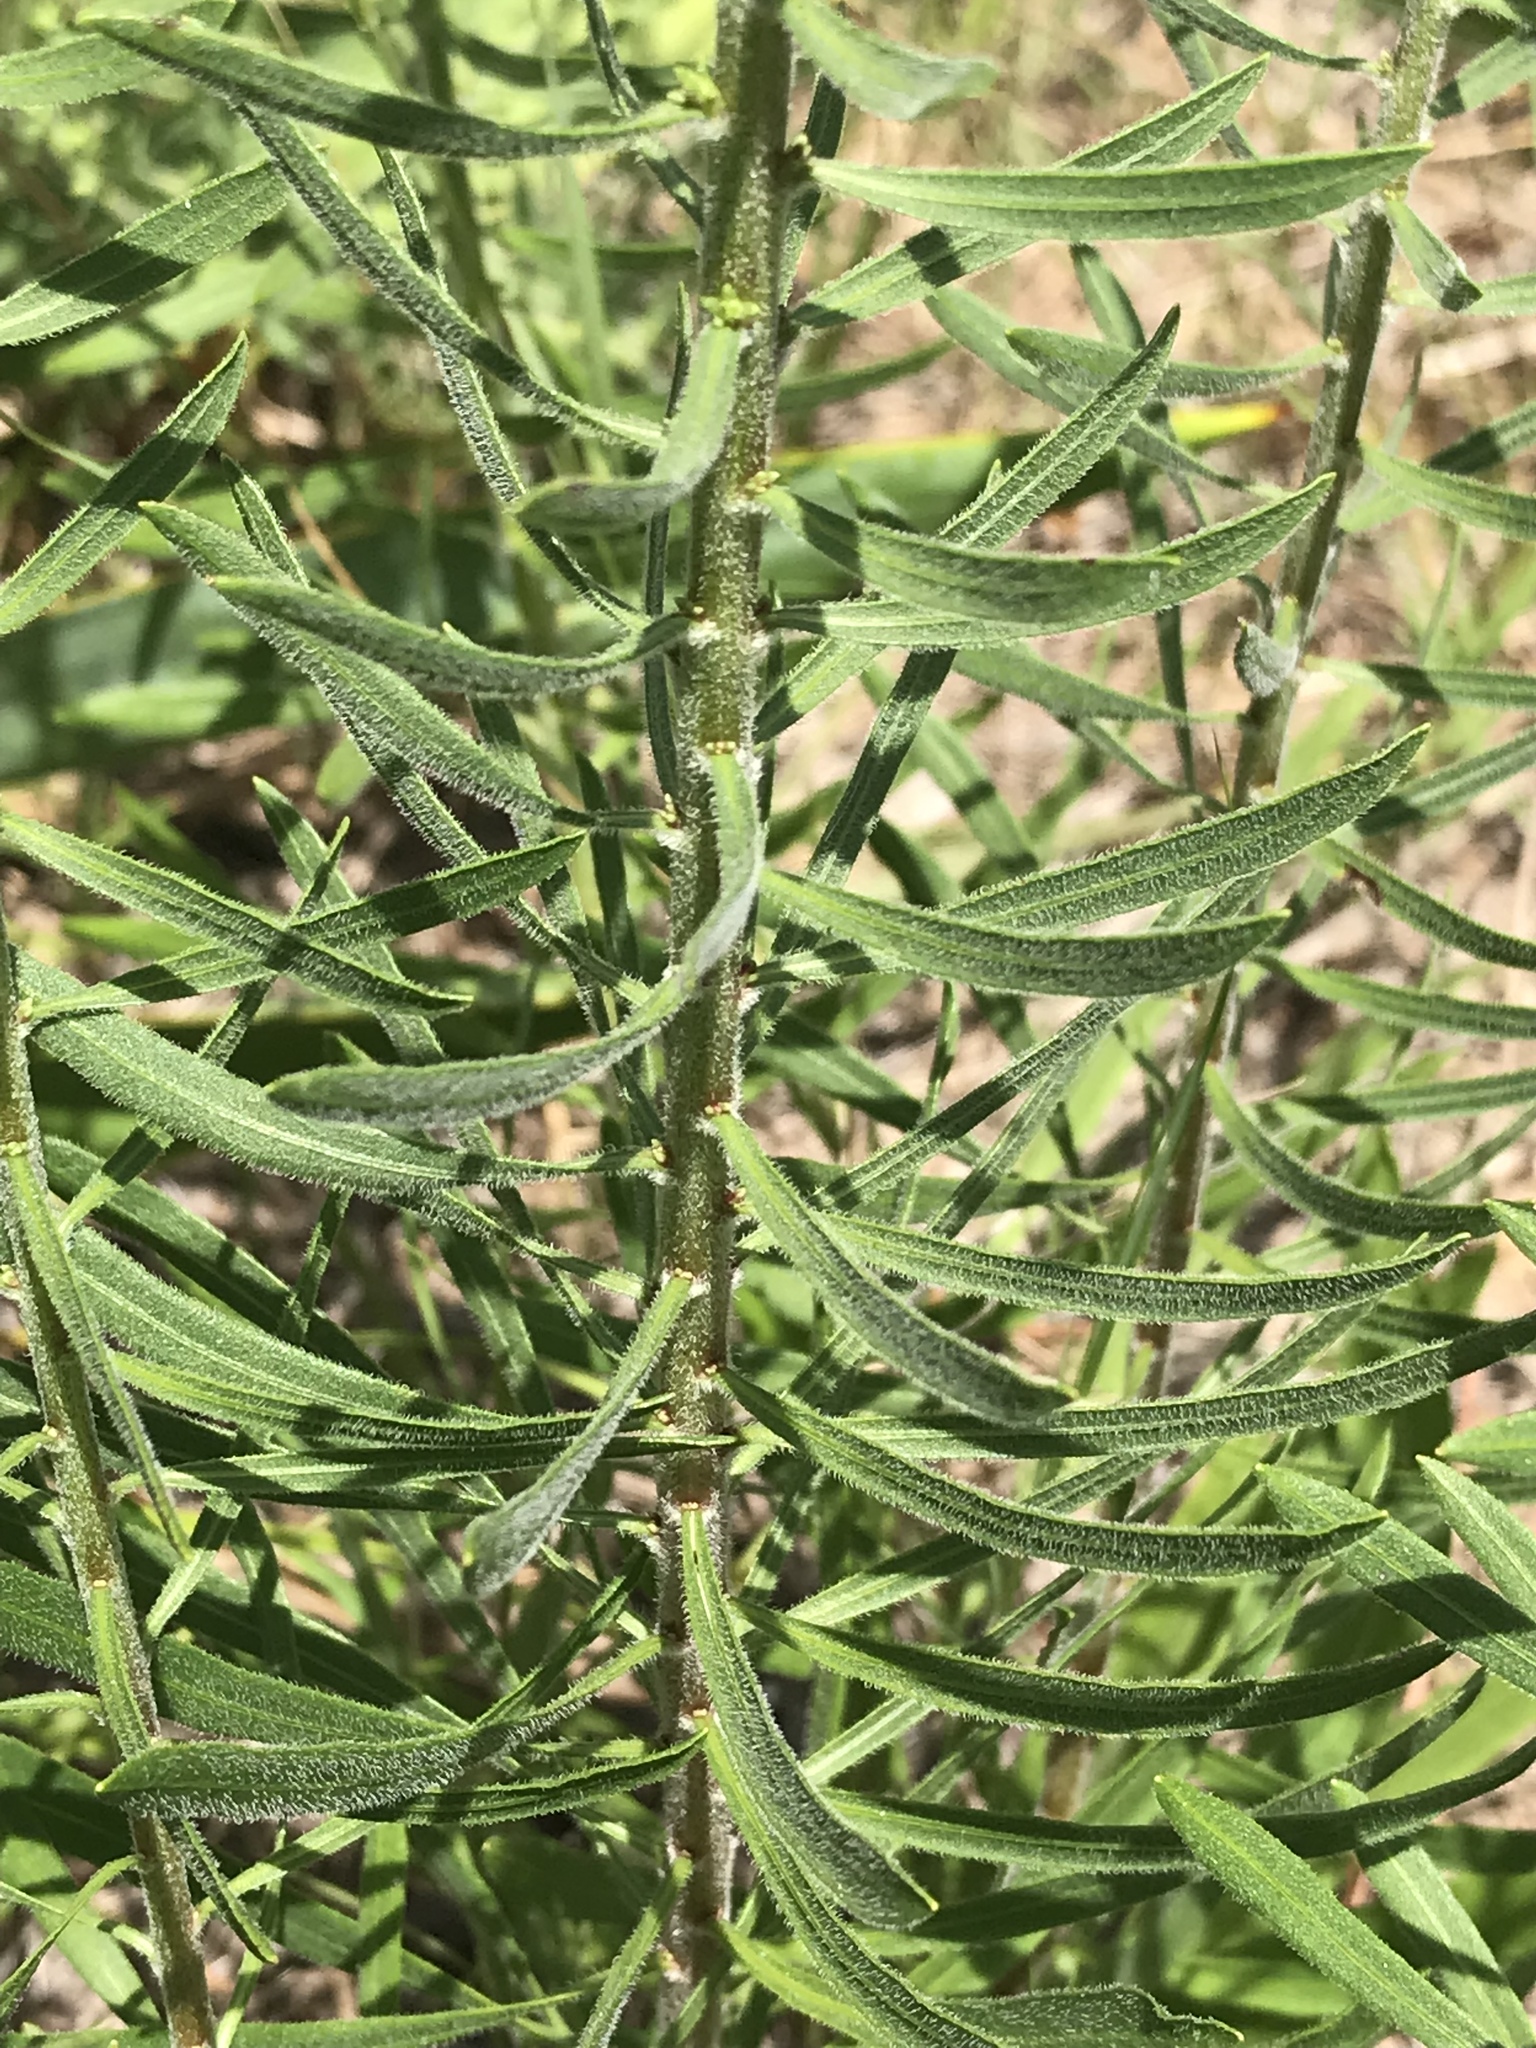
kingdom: Plantae
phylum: Tracheophyta
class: Magnoliopsida
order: Asterales
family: Asteraceae
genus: Liatris
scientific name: Liatris aspera
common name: Lacerate blazing-star
